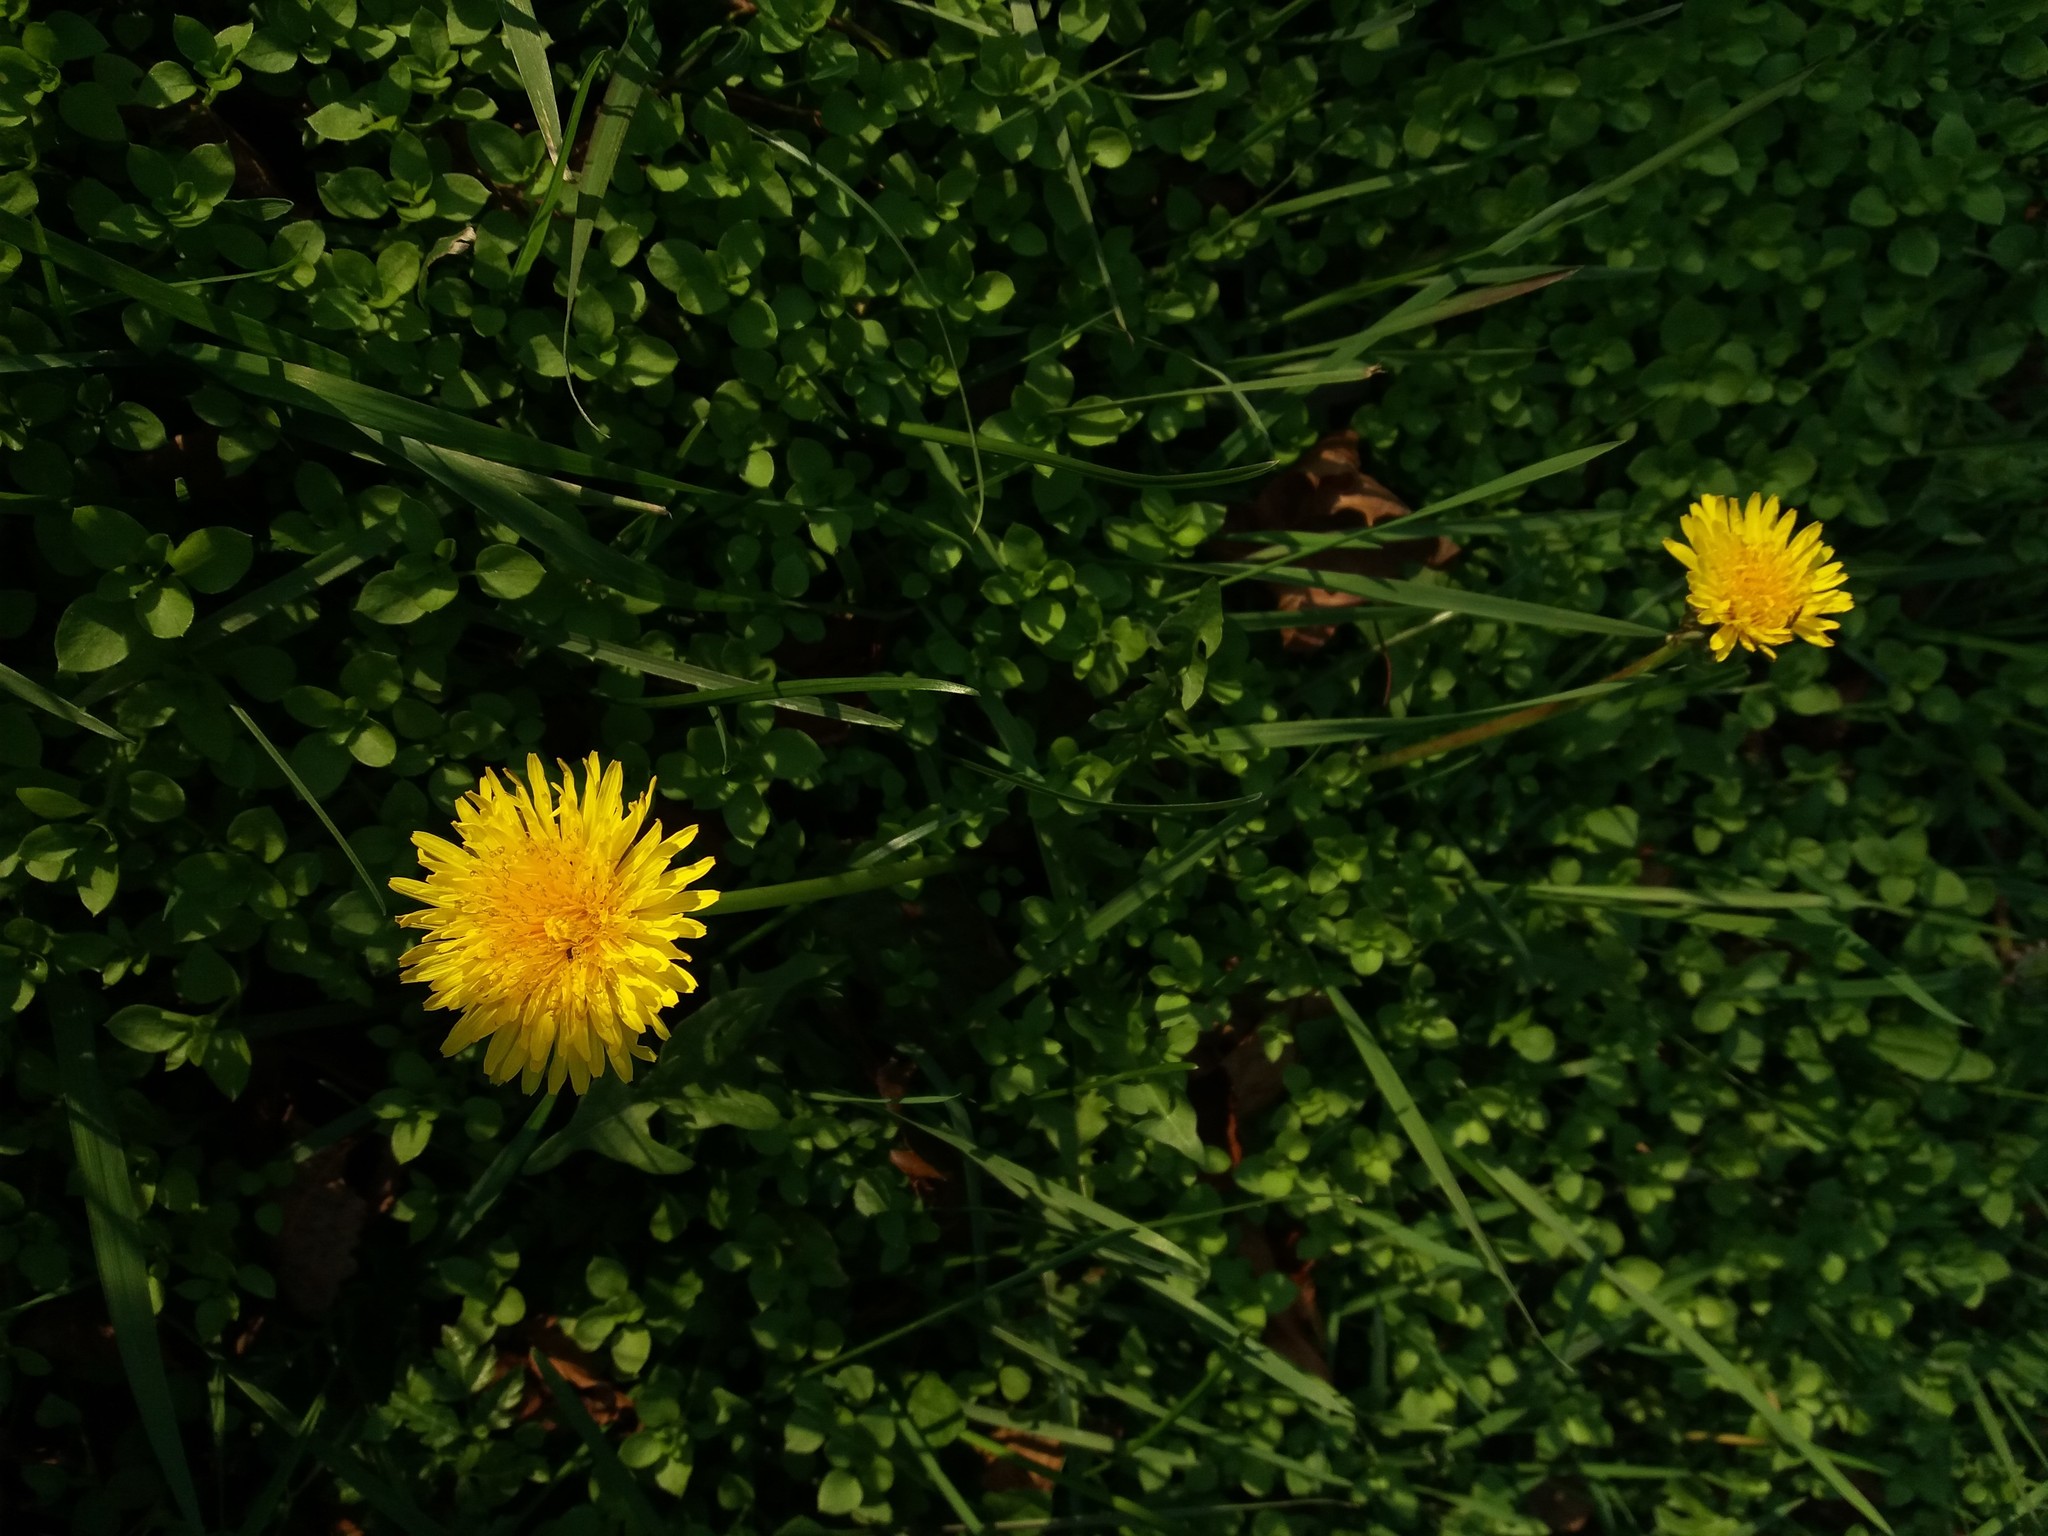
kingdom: Plantae
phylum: Tracheophyta
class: Magnoliopsida
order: Asterales
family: Asteraceae
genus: Taraxacum
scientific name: Taraxacum officinale
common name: Common dandelion
